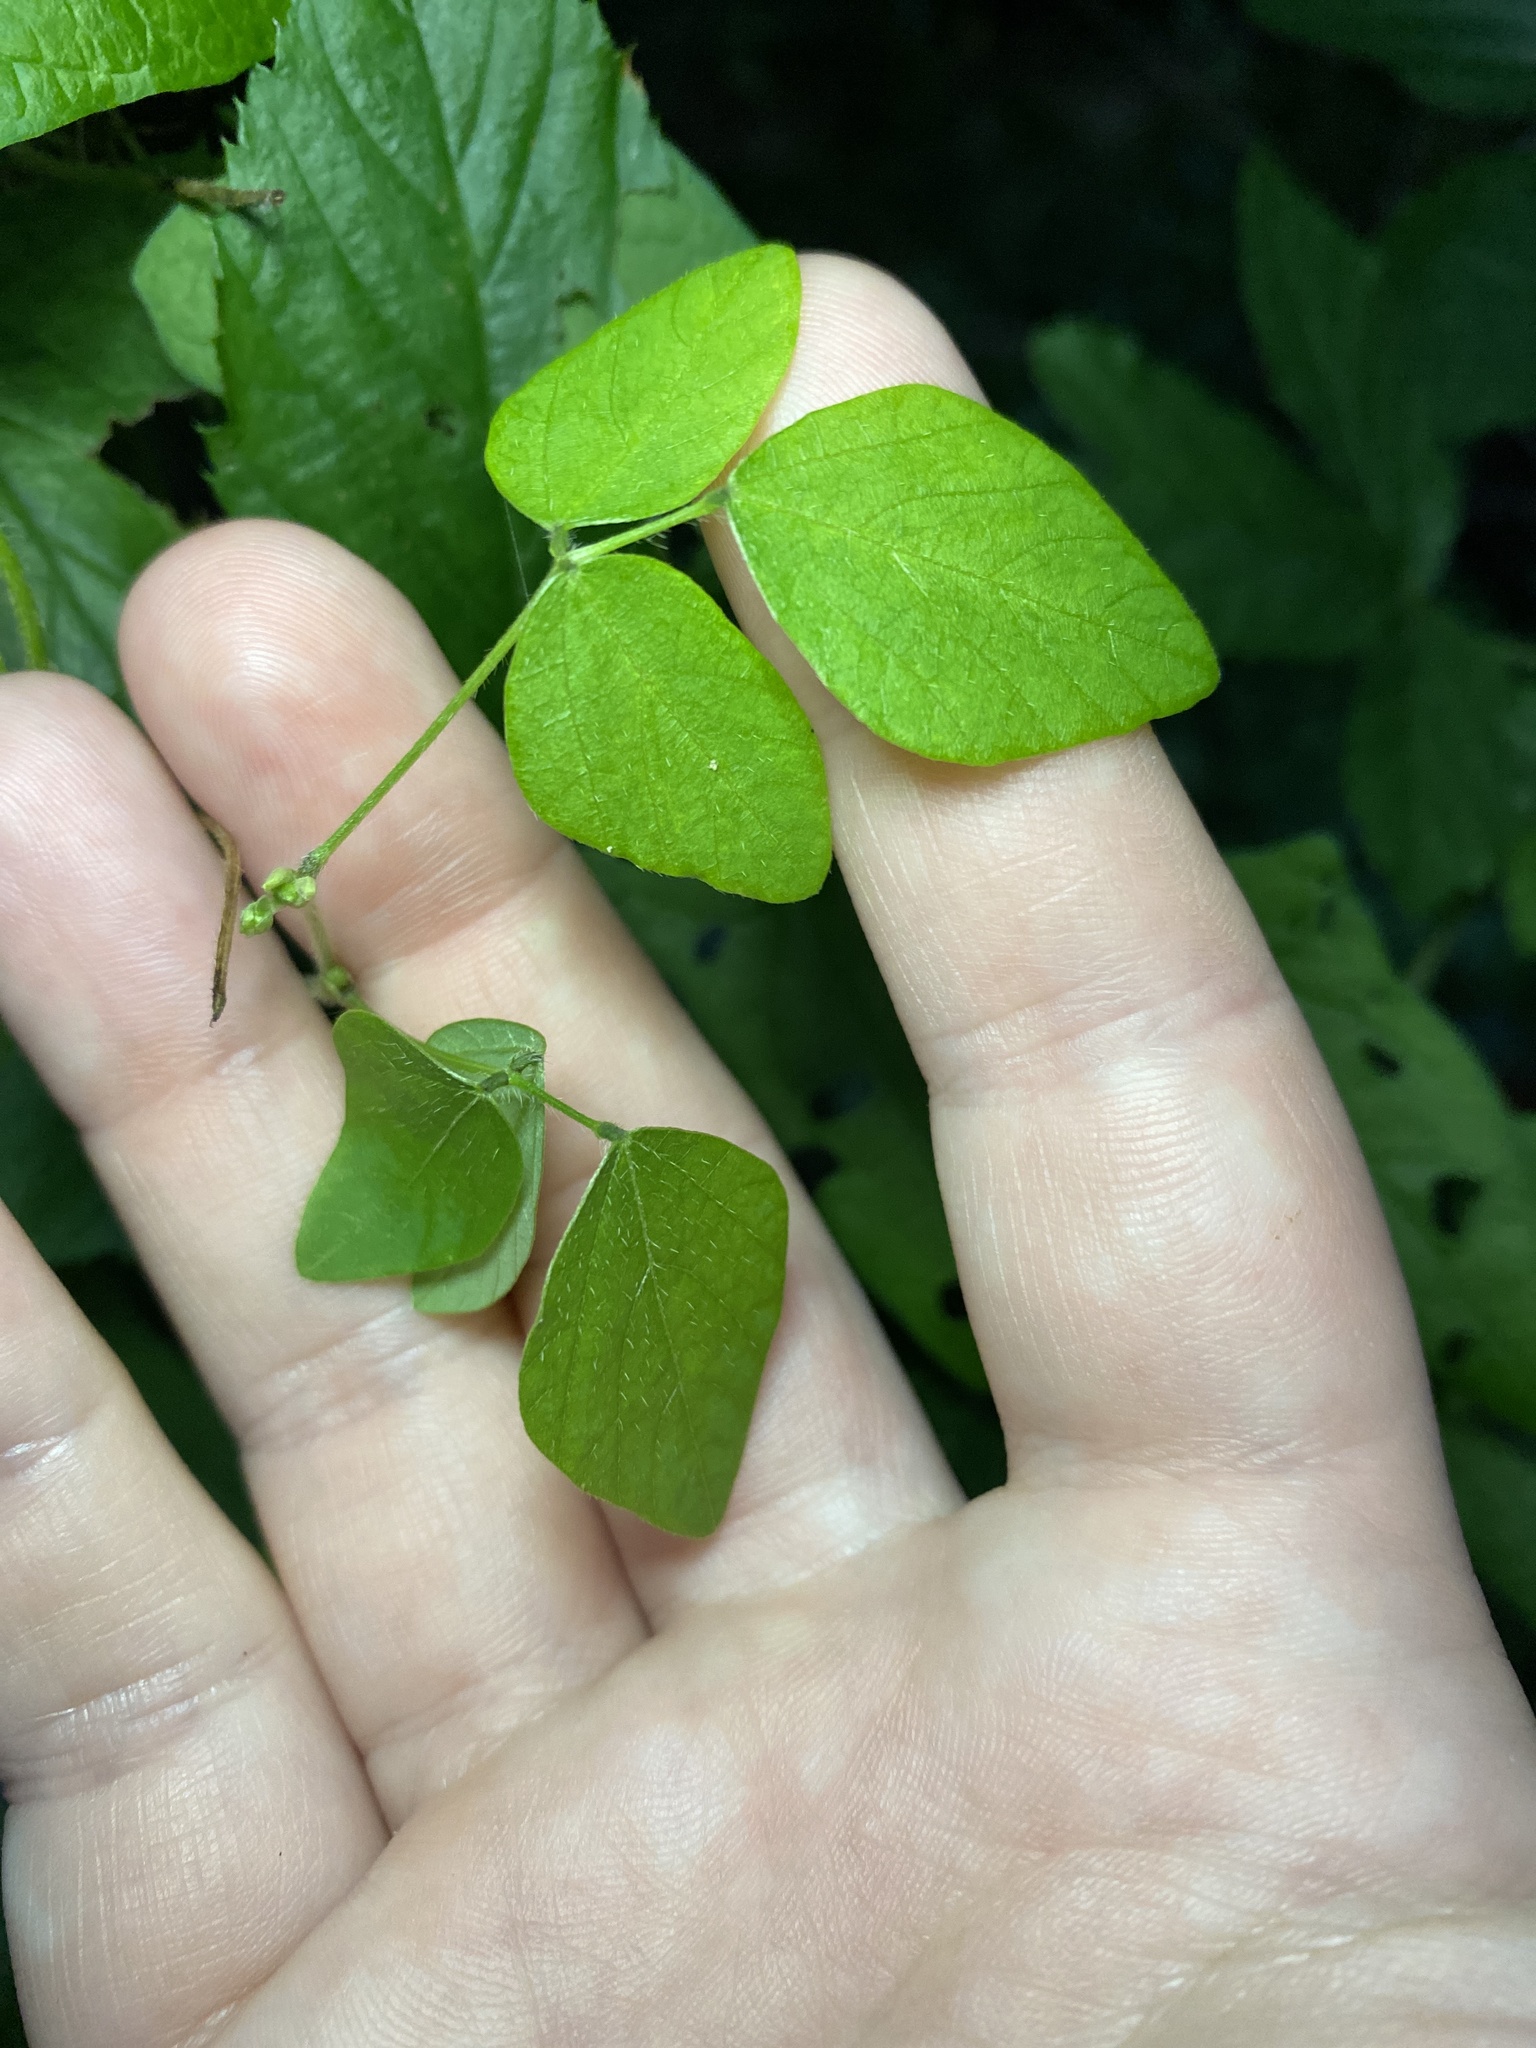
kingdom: Plantae
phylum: Tracheophyta
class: Magnoliopsida
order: Fabales
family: Fabaceae
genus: Amphicarpaea
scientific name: Amphicarpaea bracteata
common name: American hog peanut
